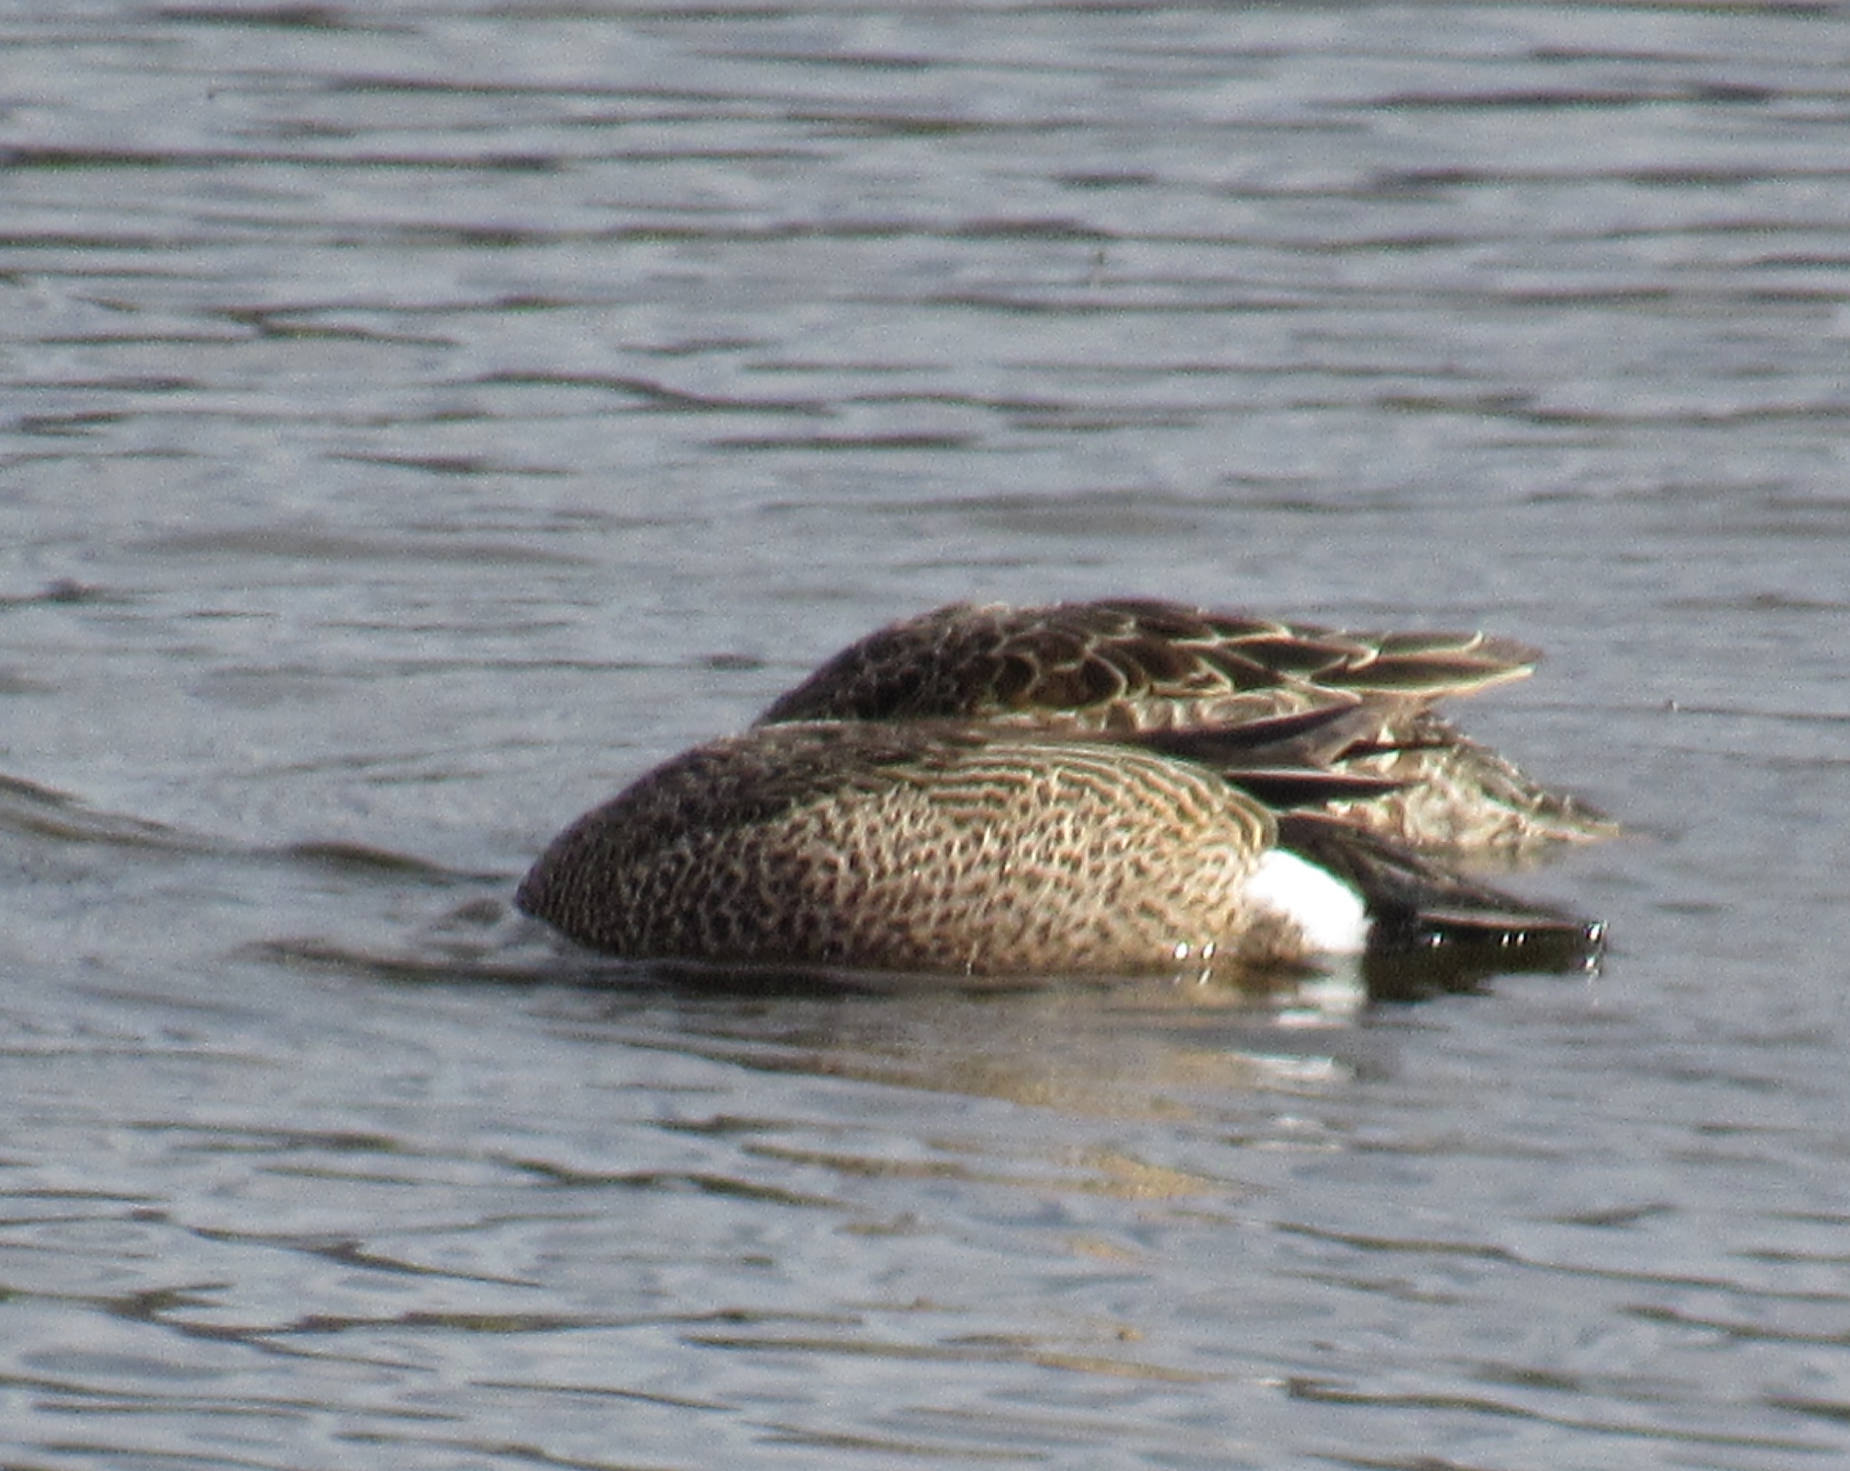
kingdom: Animalia
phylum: Chordata
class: Aves
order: Anseriformes
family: Anatidae
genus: Spatula
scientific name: Spatula discors
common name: Blue-winged teal
